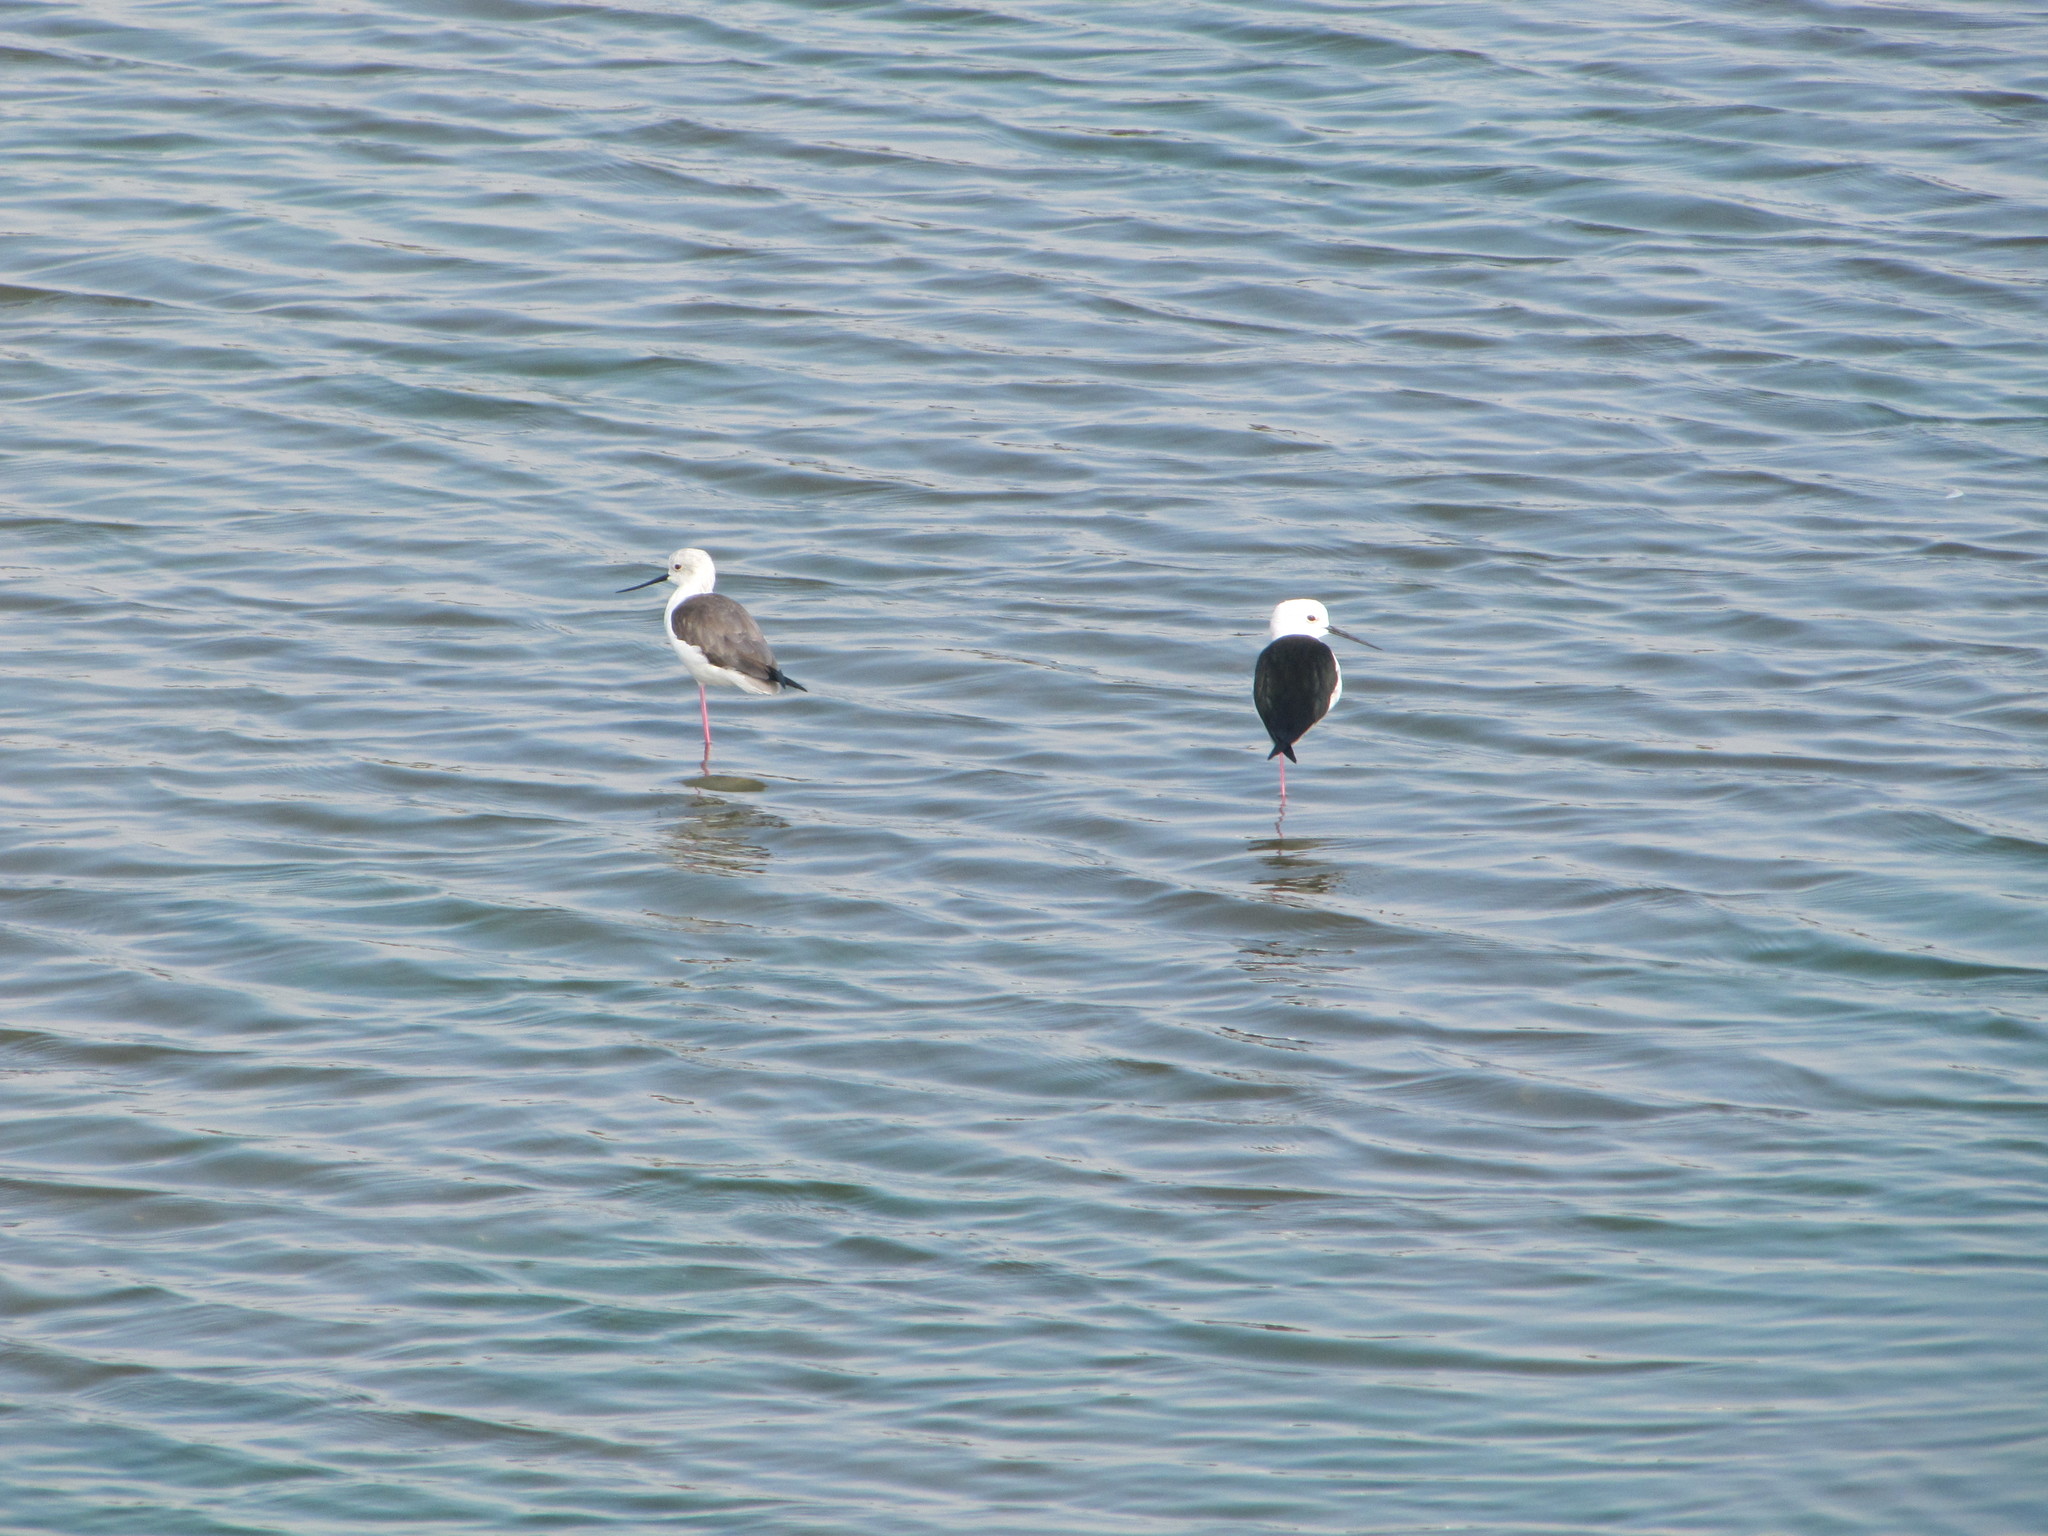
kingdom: Animalia
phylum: Chordata
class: Aves
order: Charadriiformes
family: Recurvirostridae
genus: Himantopus
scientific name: Himantopus himantopus
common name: Black-winged stilt
